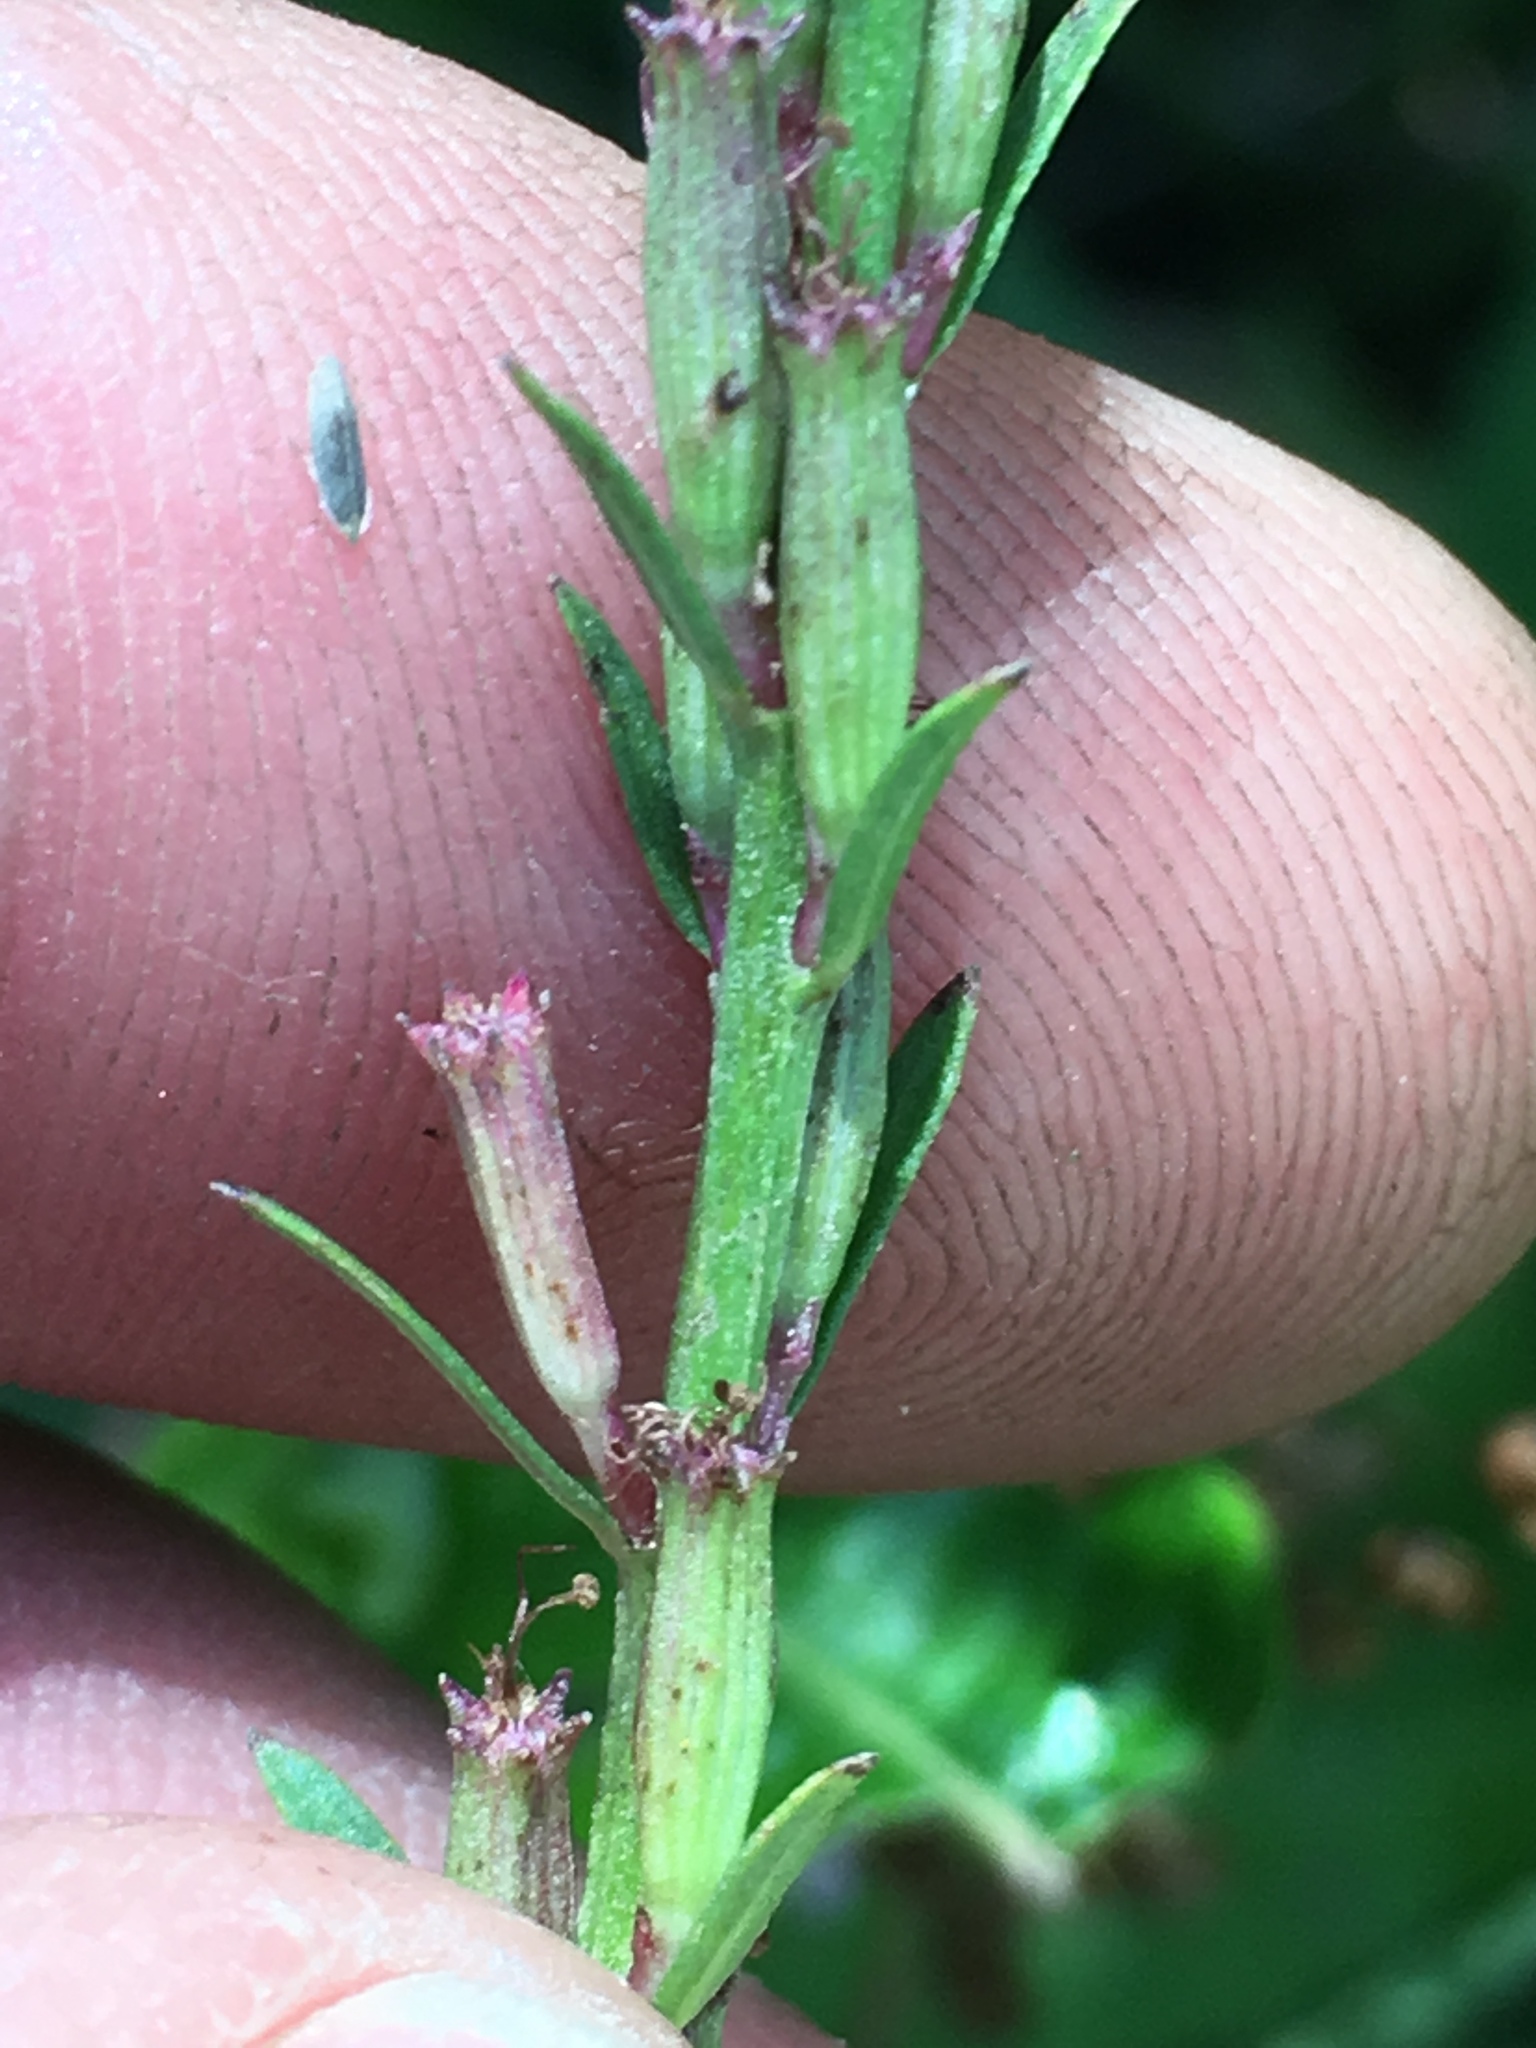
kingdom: Plantae
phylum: Tracheophyta
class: Magnoliopsida
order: Myrtales
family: Lythraceae
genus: Lythrum
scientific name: Lythrum californicum
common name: California loosestrife
